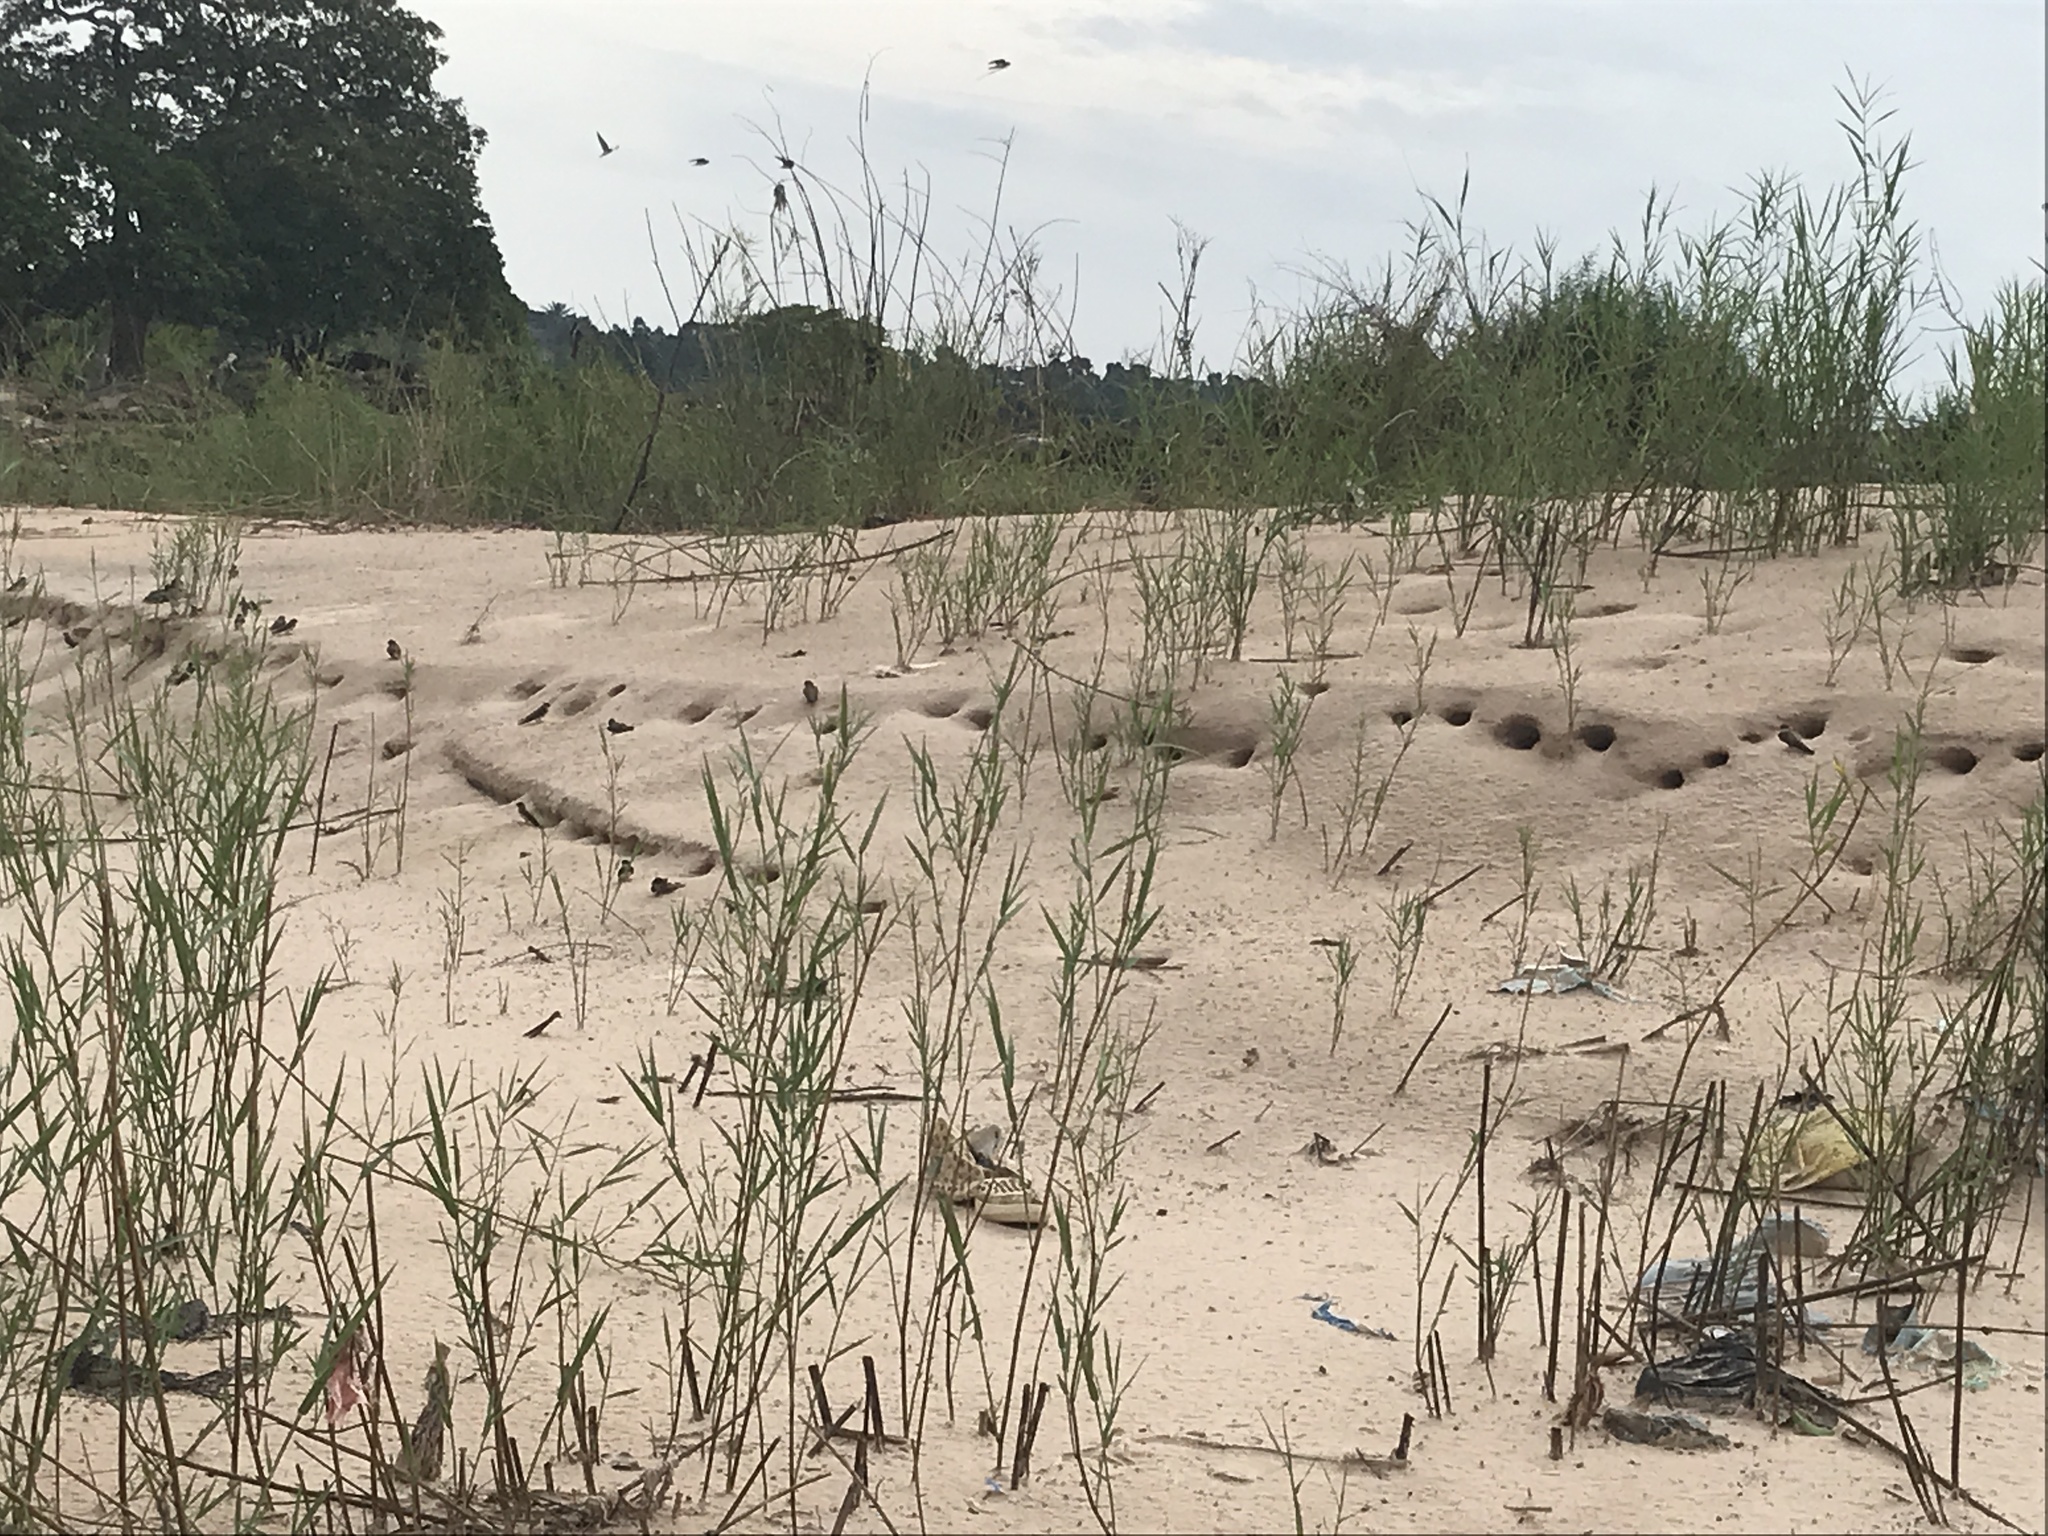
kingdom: Animalia
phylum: Chordata
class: Aves
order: Passeriformes
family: Hirundinidae
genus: Riparia
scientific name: Riparia congica
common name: Congo martin
